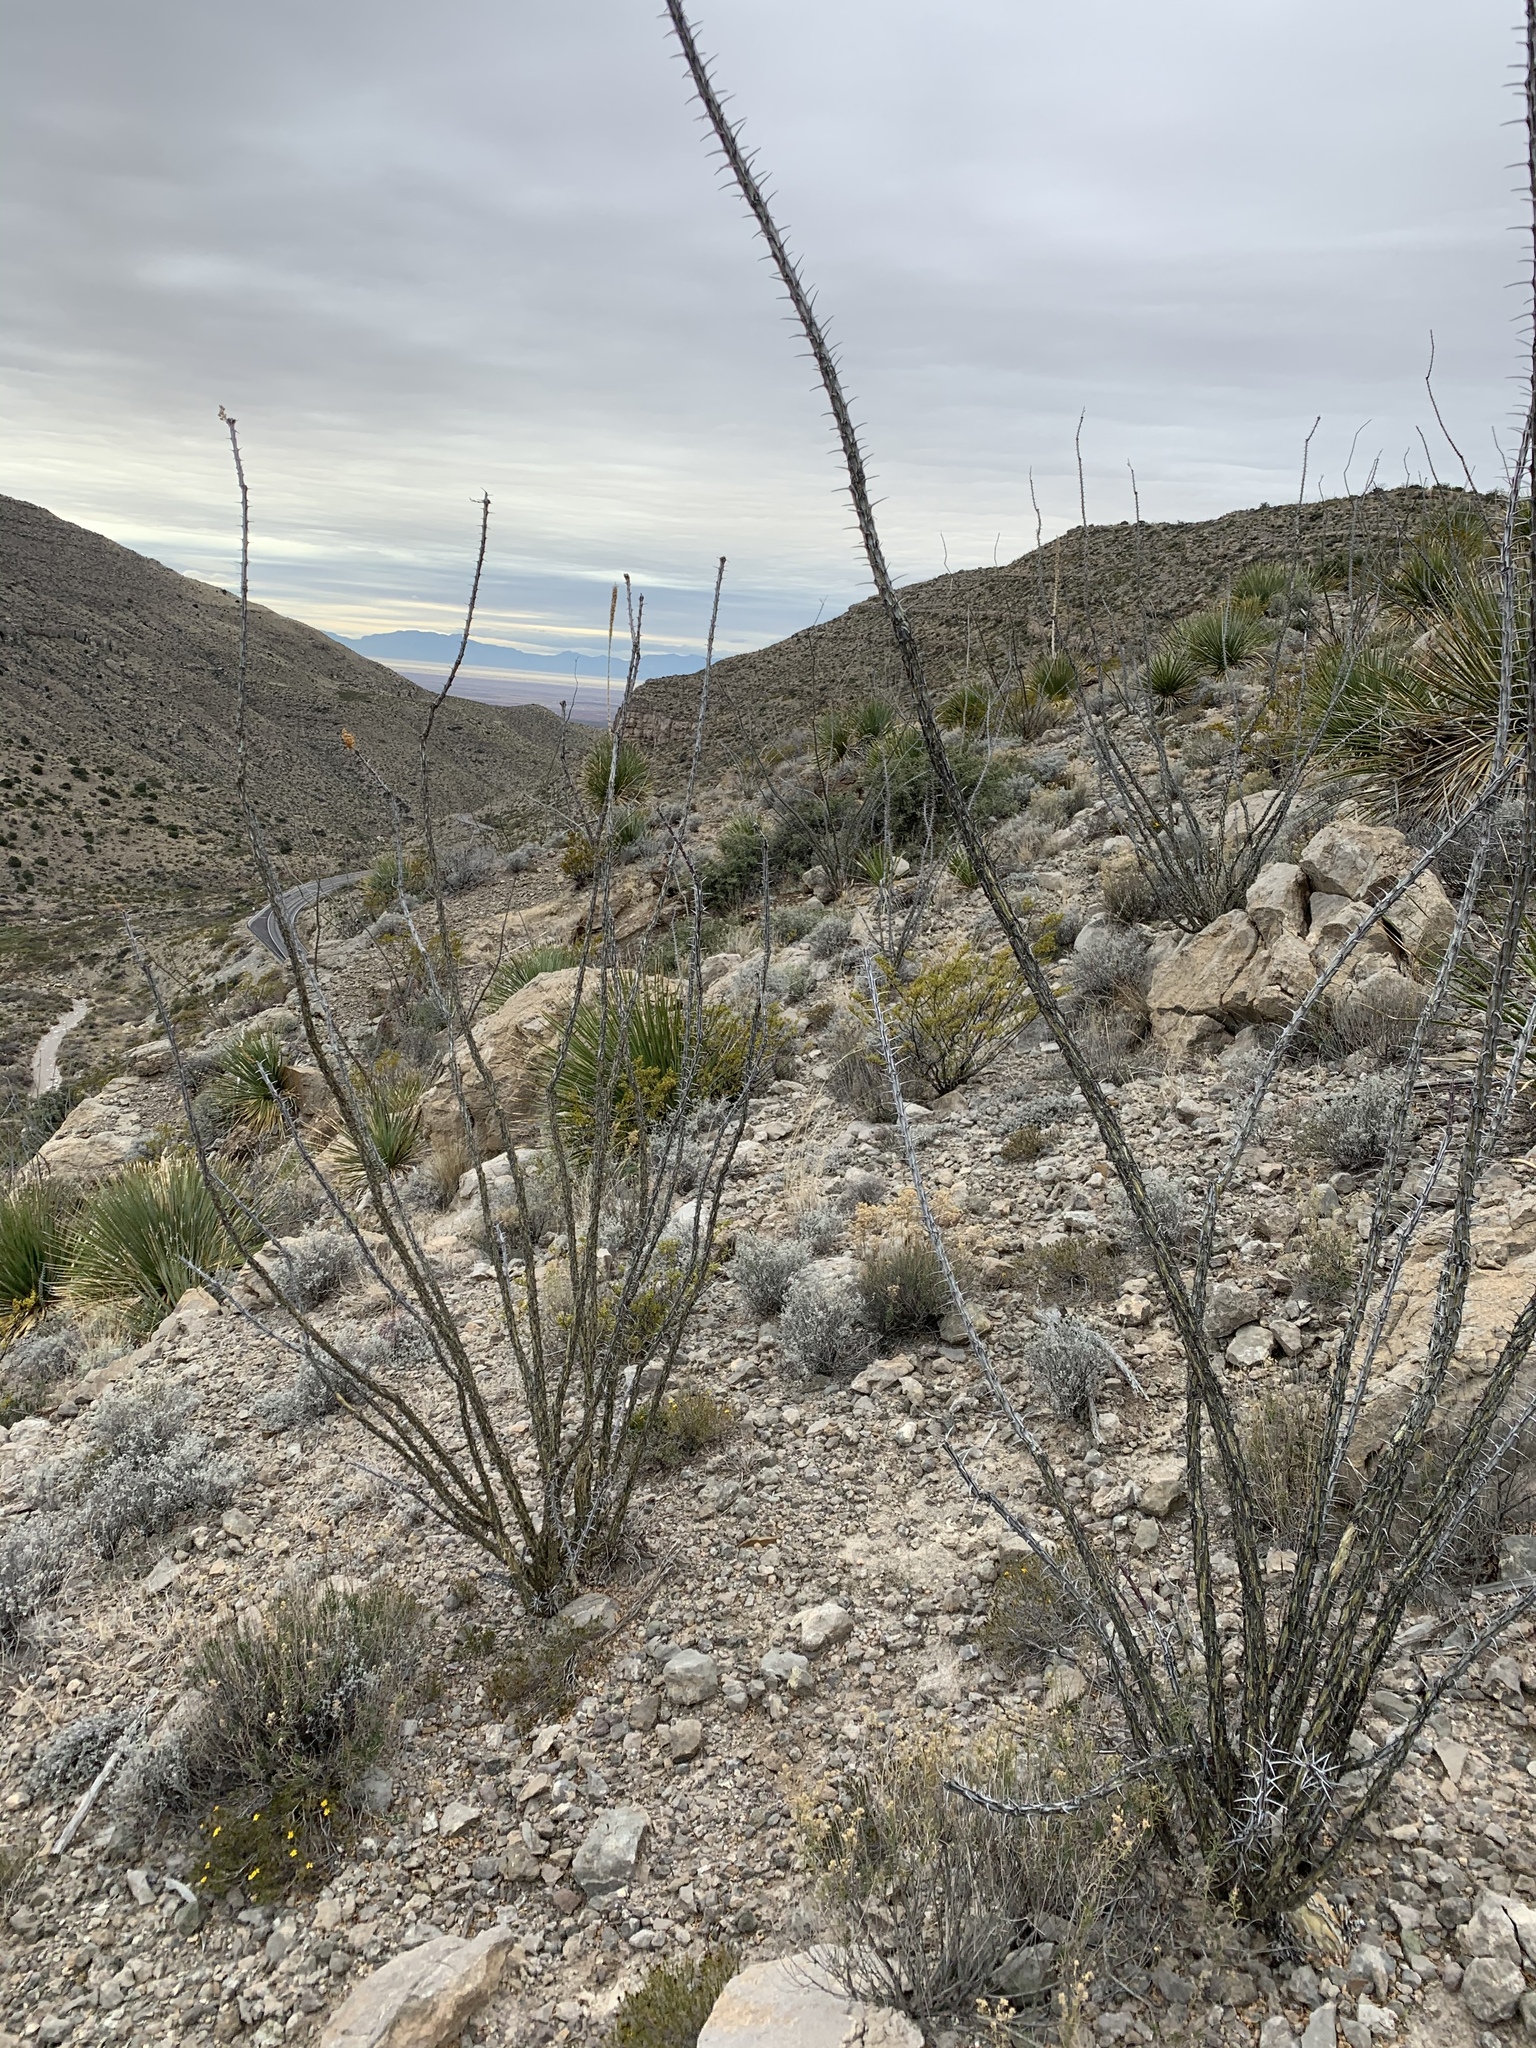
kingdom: Plantae
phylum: Tracheophyta
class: Magnoliopsida
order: Ericales
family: Fouquieriaceae
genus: Fouquieria
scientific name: Fouquieria splendens
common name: Vine-cactus
